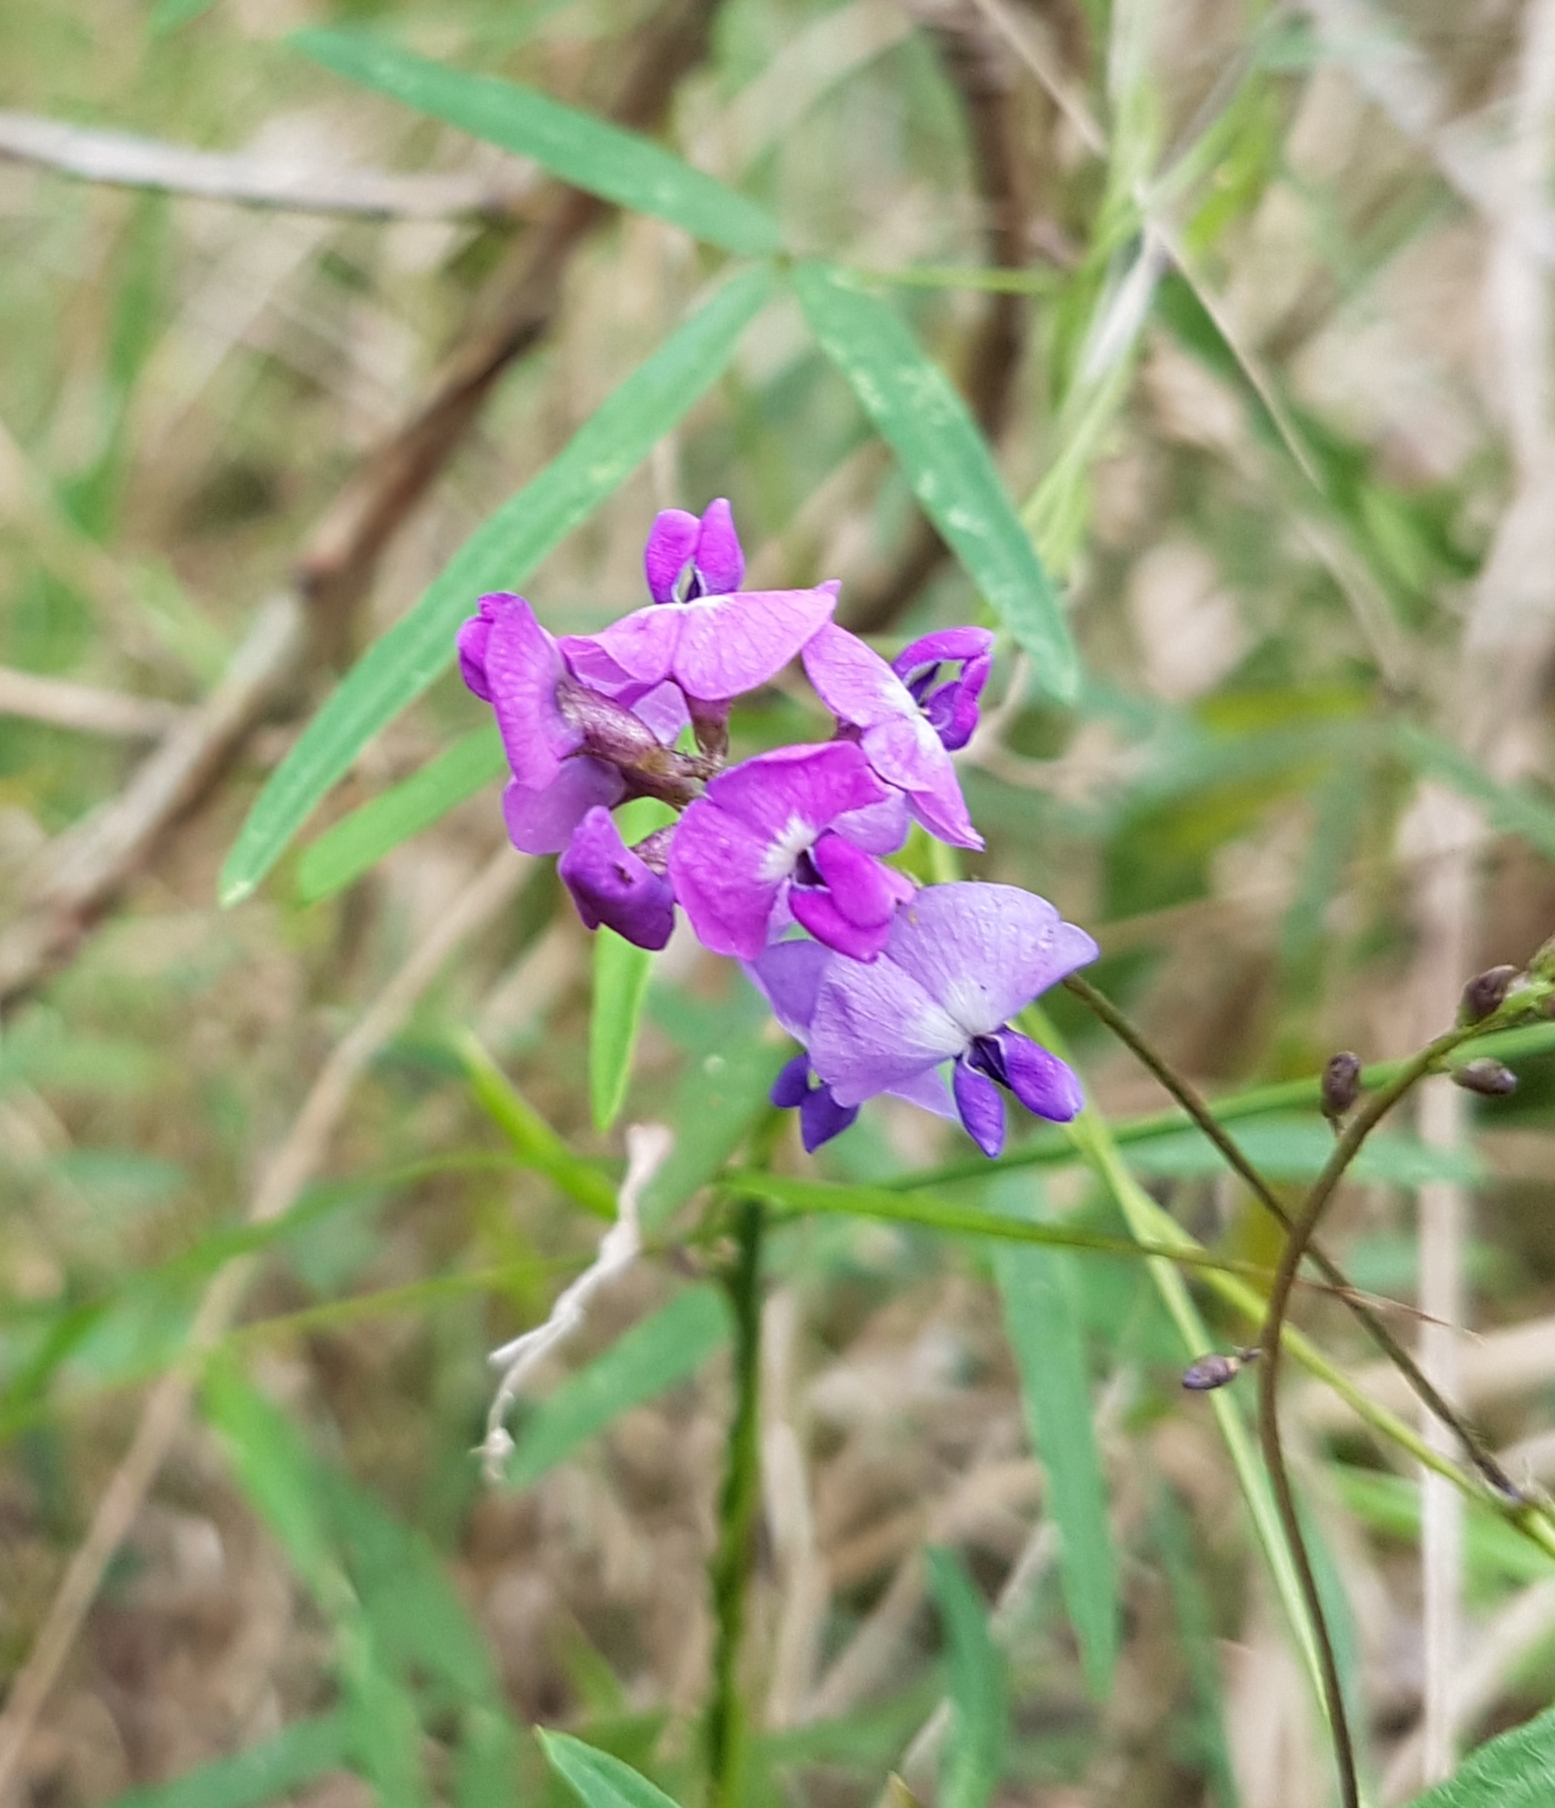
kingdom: Plantae
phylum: Tracheophyta
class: Magnoliopsida
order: Fabales
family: Fabaceae
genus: Glycine
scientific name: Glycine clandestina
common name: Twining glycine
